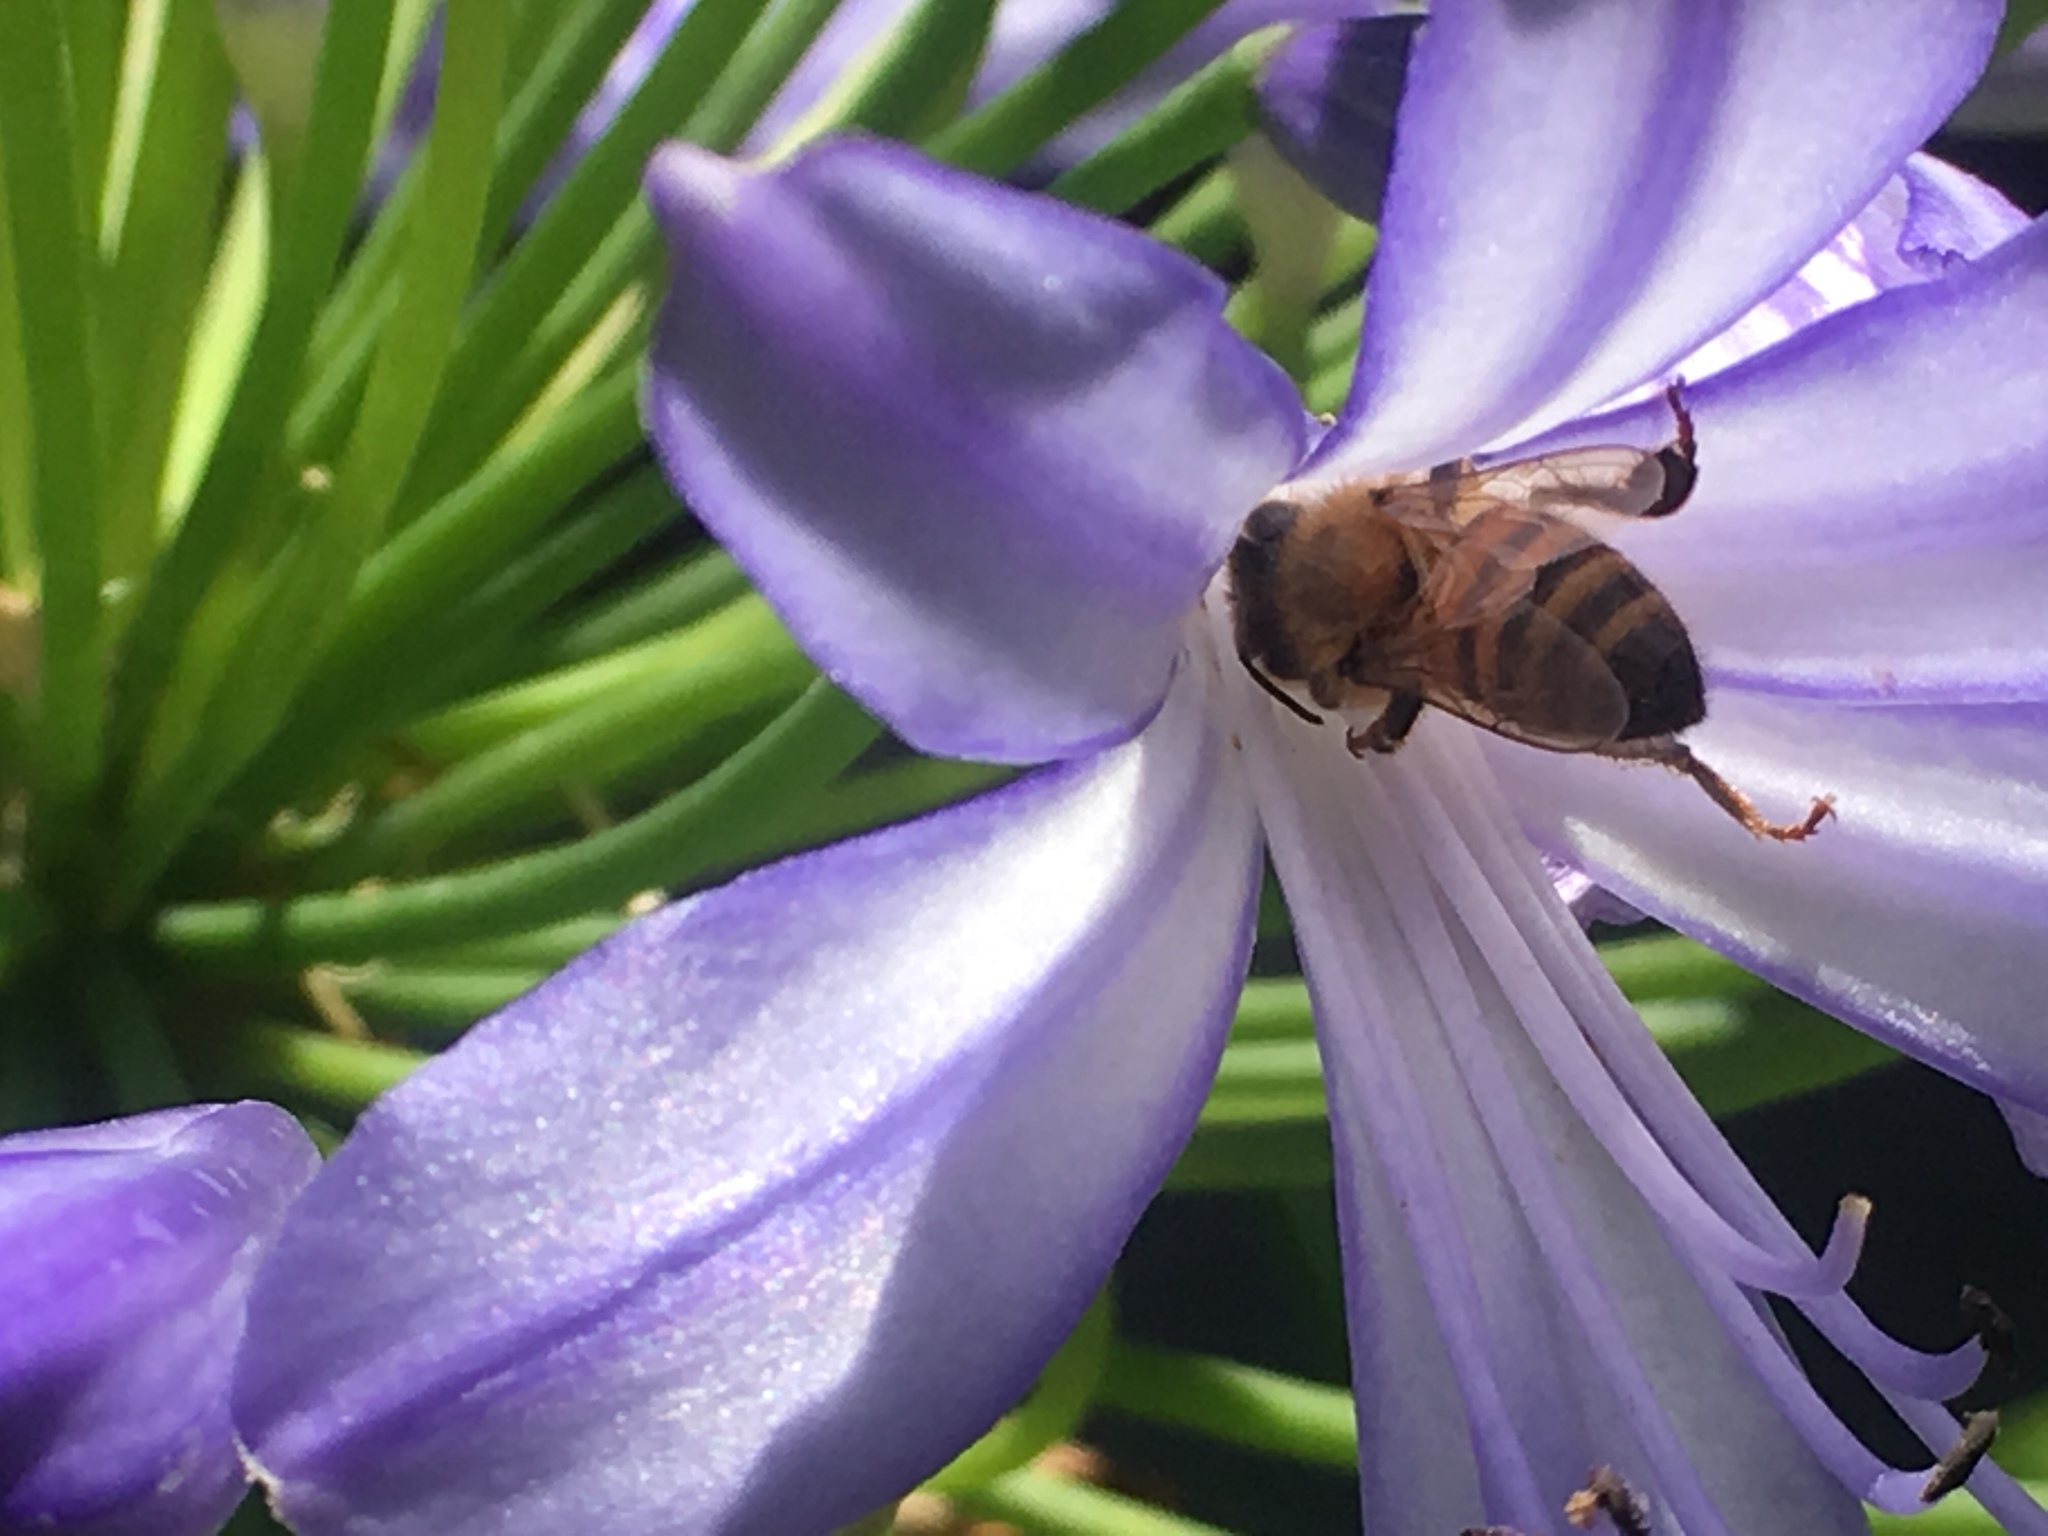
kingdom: Animalia
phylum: Arthropoda
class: Insecta
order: Hymenoptera
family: Apidae
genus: Apis
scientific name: Apis mellifera
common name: Honey bee
